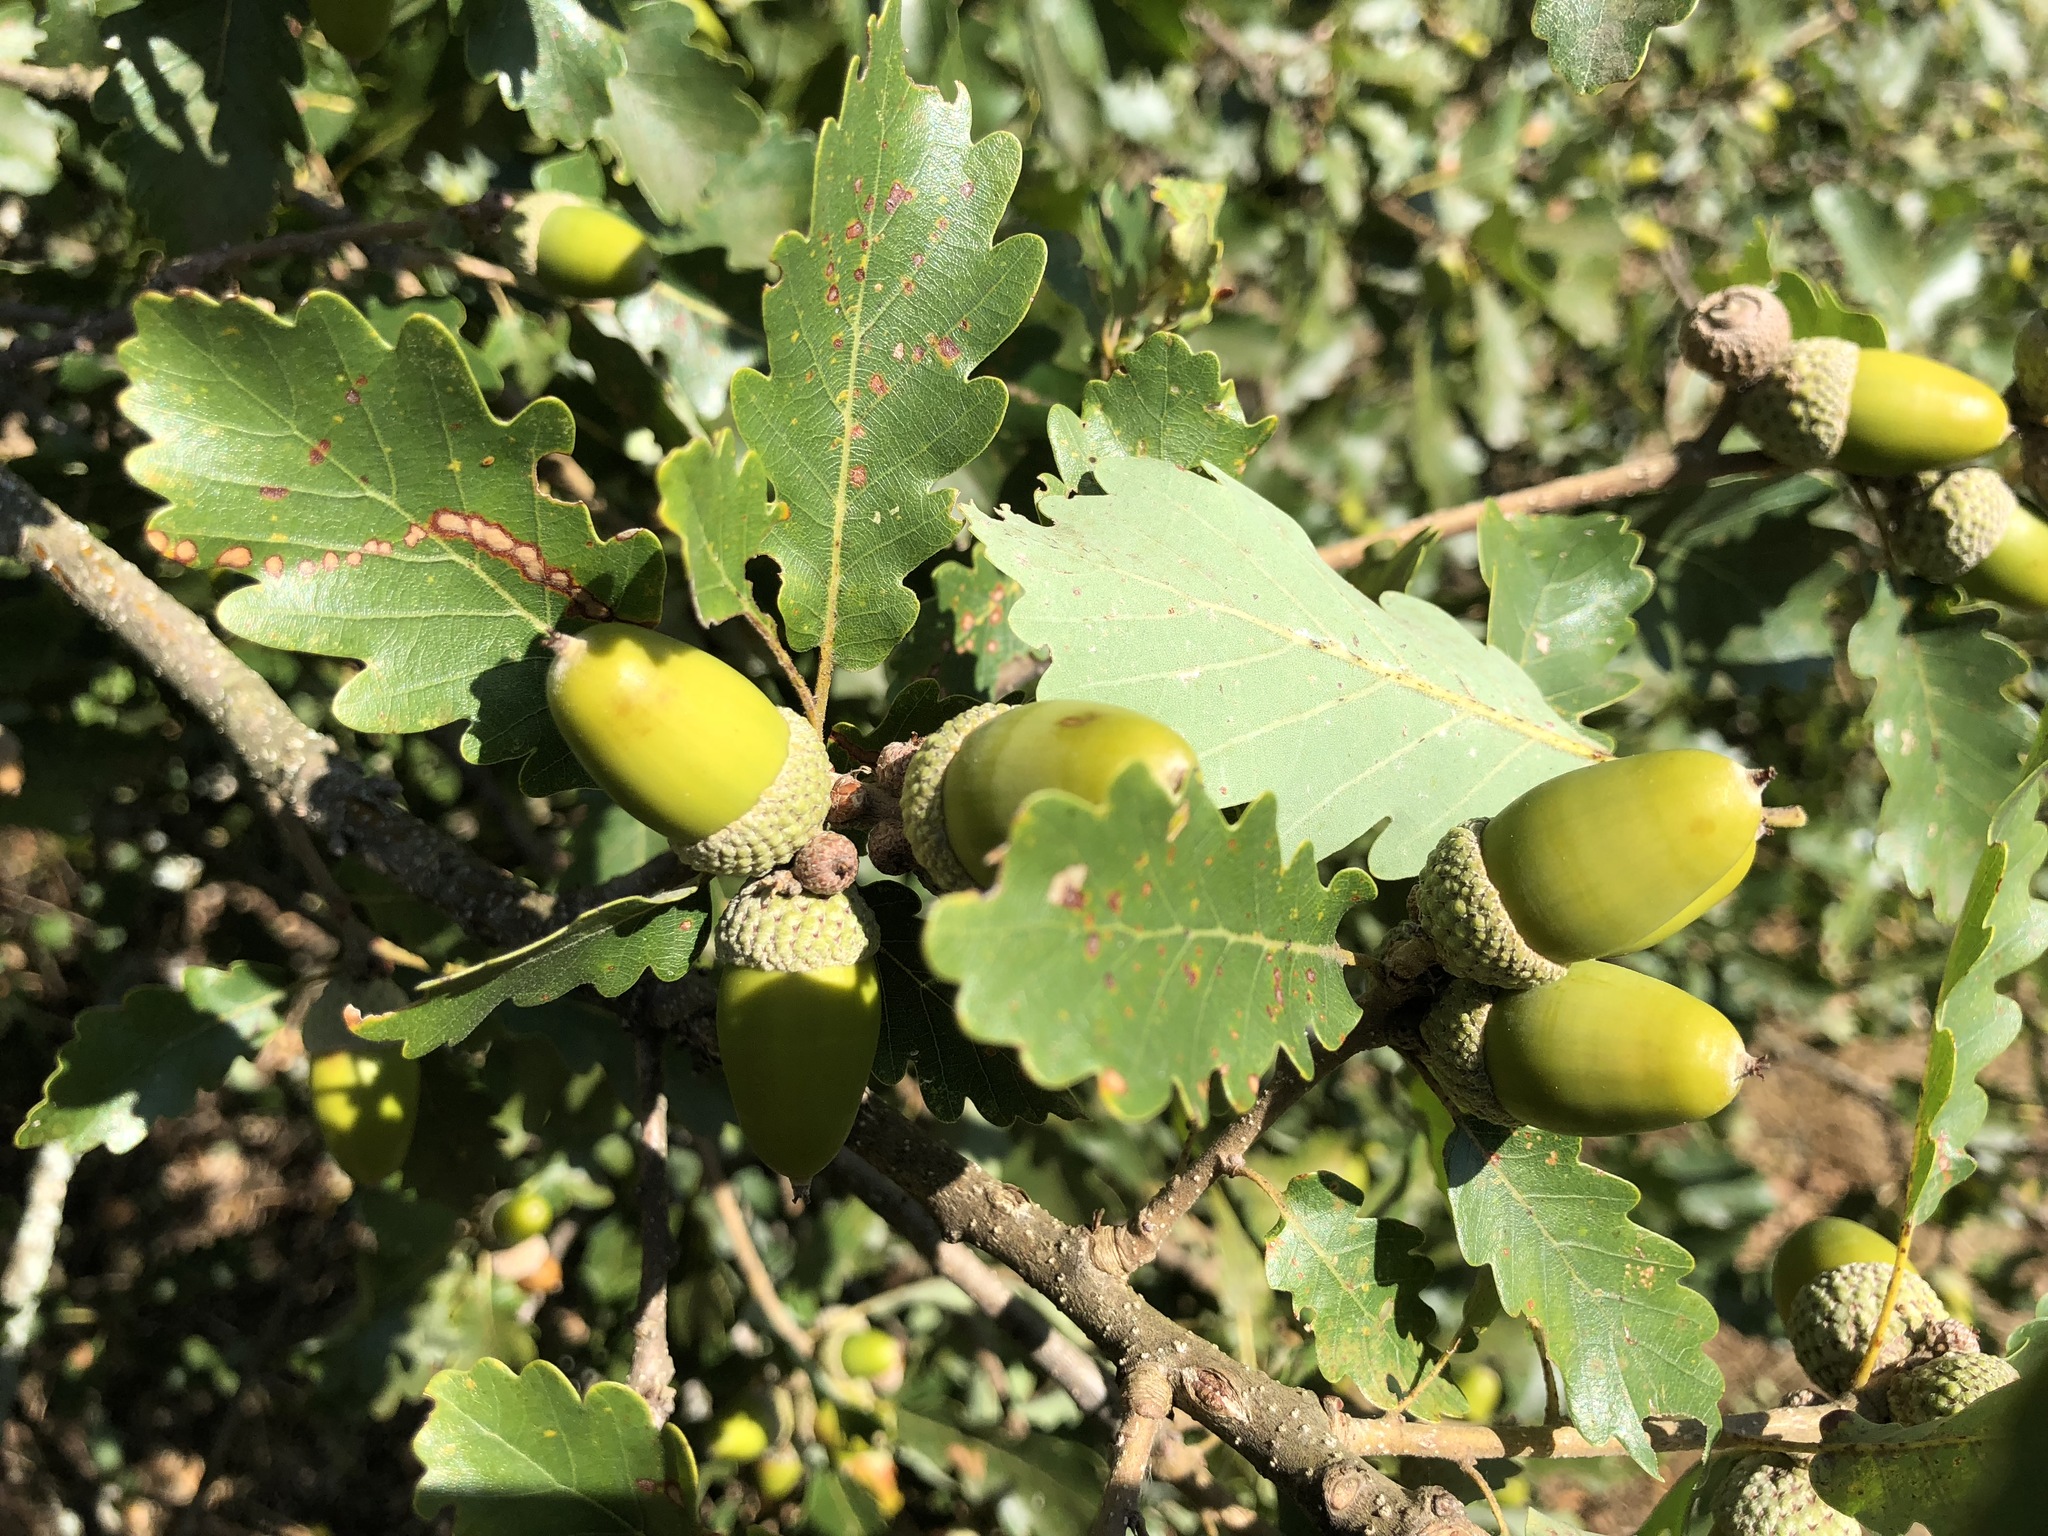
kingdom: Plantae
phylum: Tracheophyta
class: Magnoliopsida
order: Fagales
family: Fagaceae
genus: Quercus
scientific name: Quercus petraea
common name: Sessile oak
